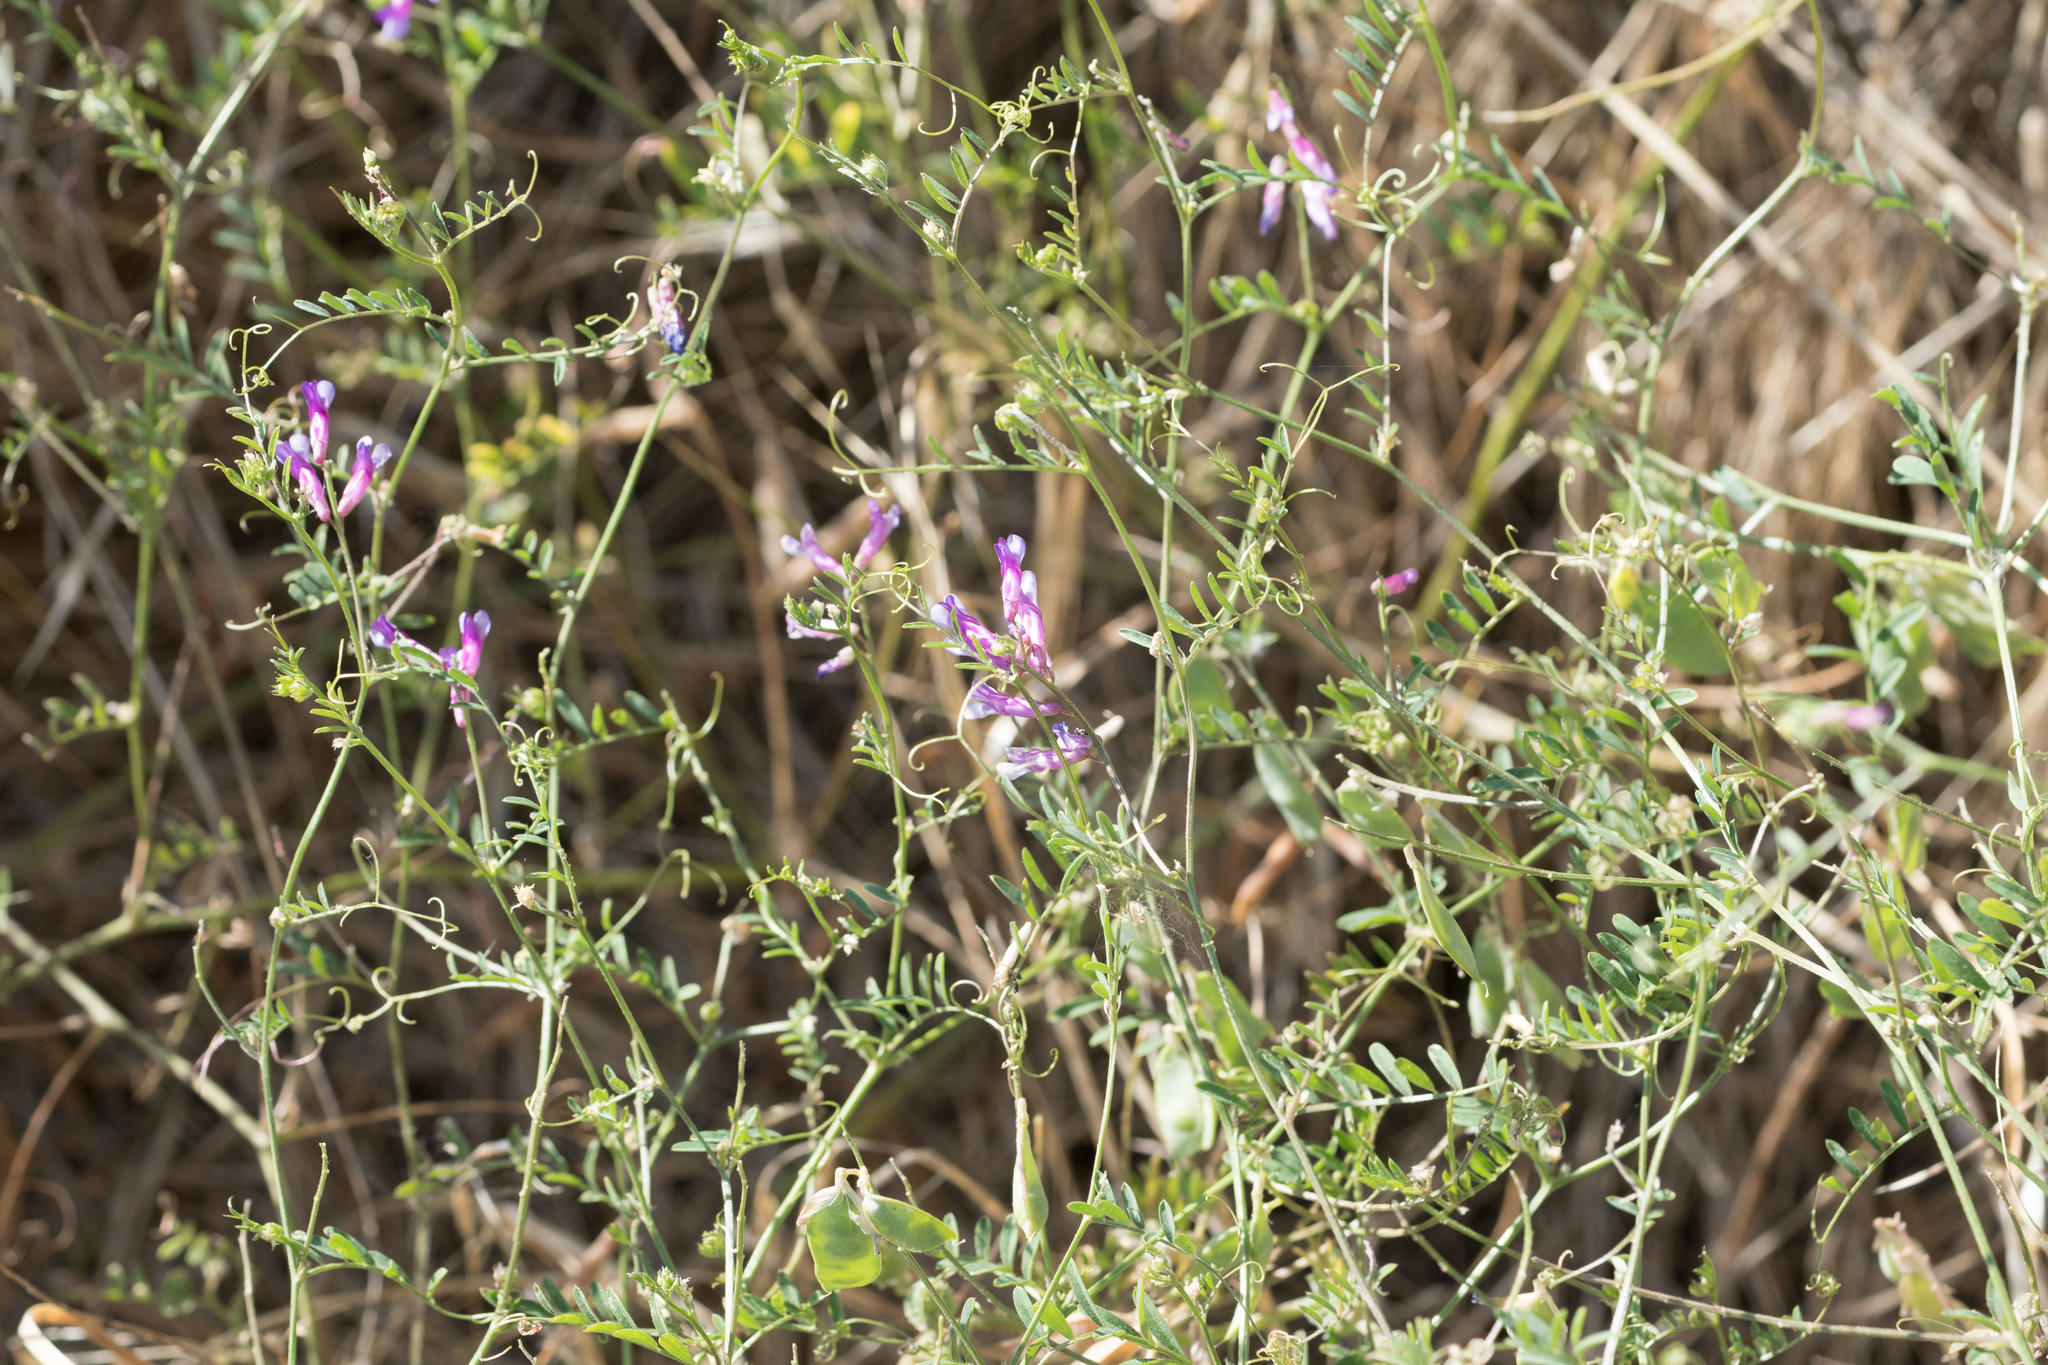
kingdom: Plantae
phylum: Tracheophyta
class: Magnoliopsida
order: Fabales
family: Fabaceae
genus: Vicia
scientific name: Vicia villosa
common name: Fodder vetch
